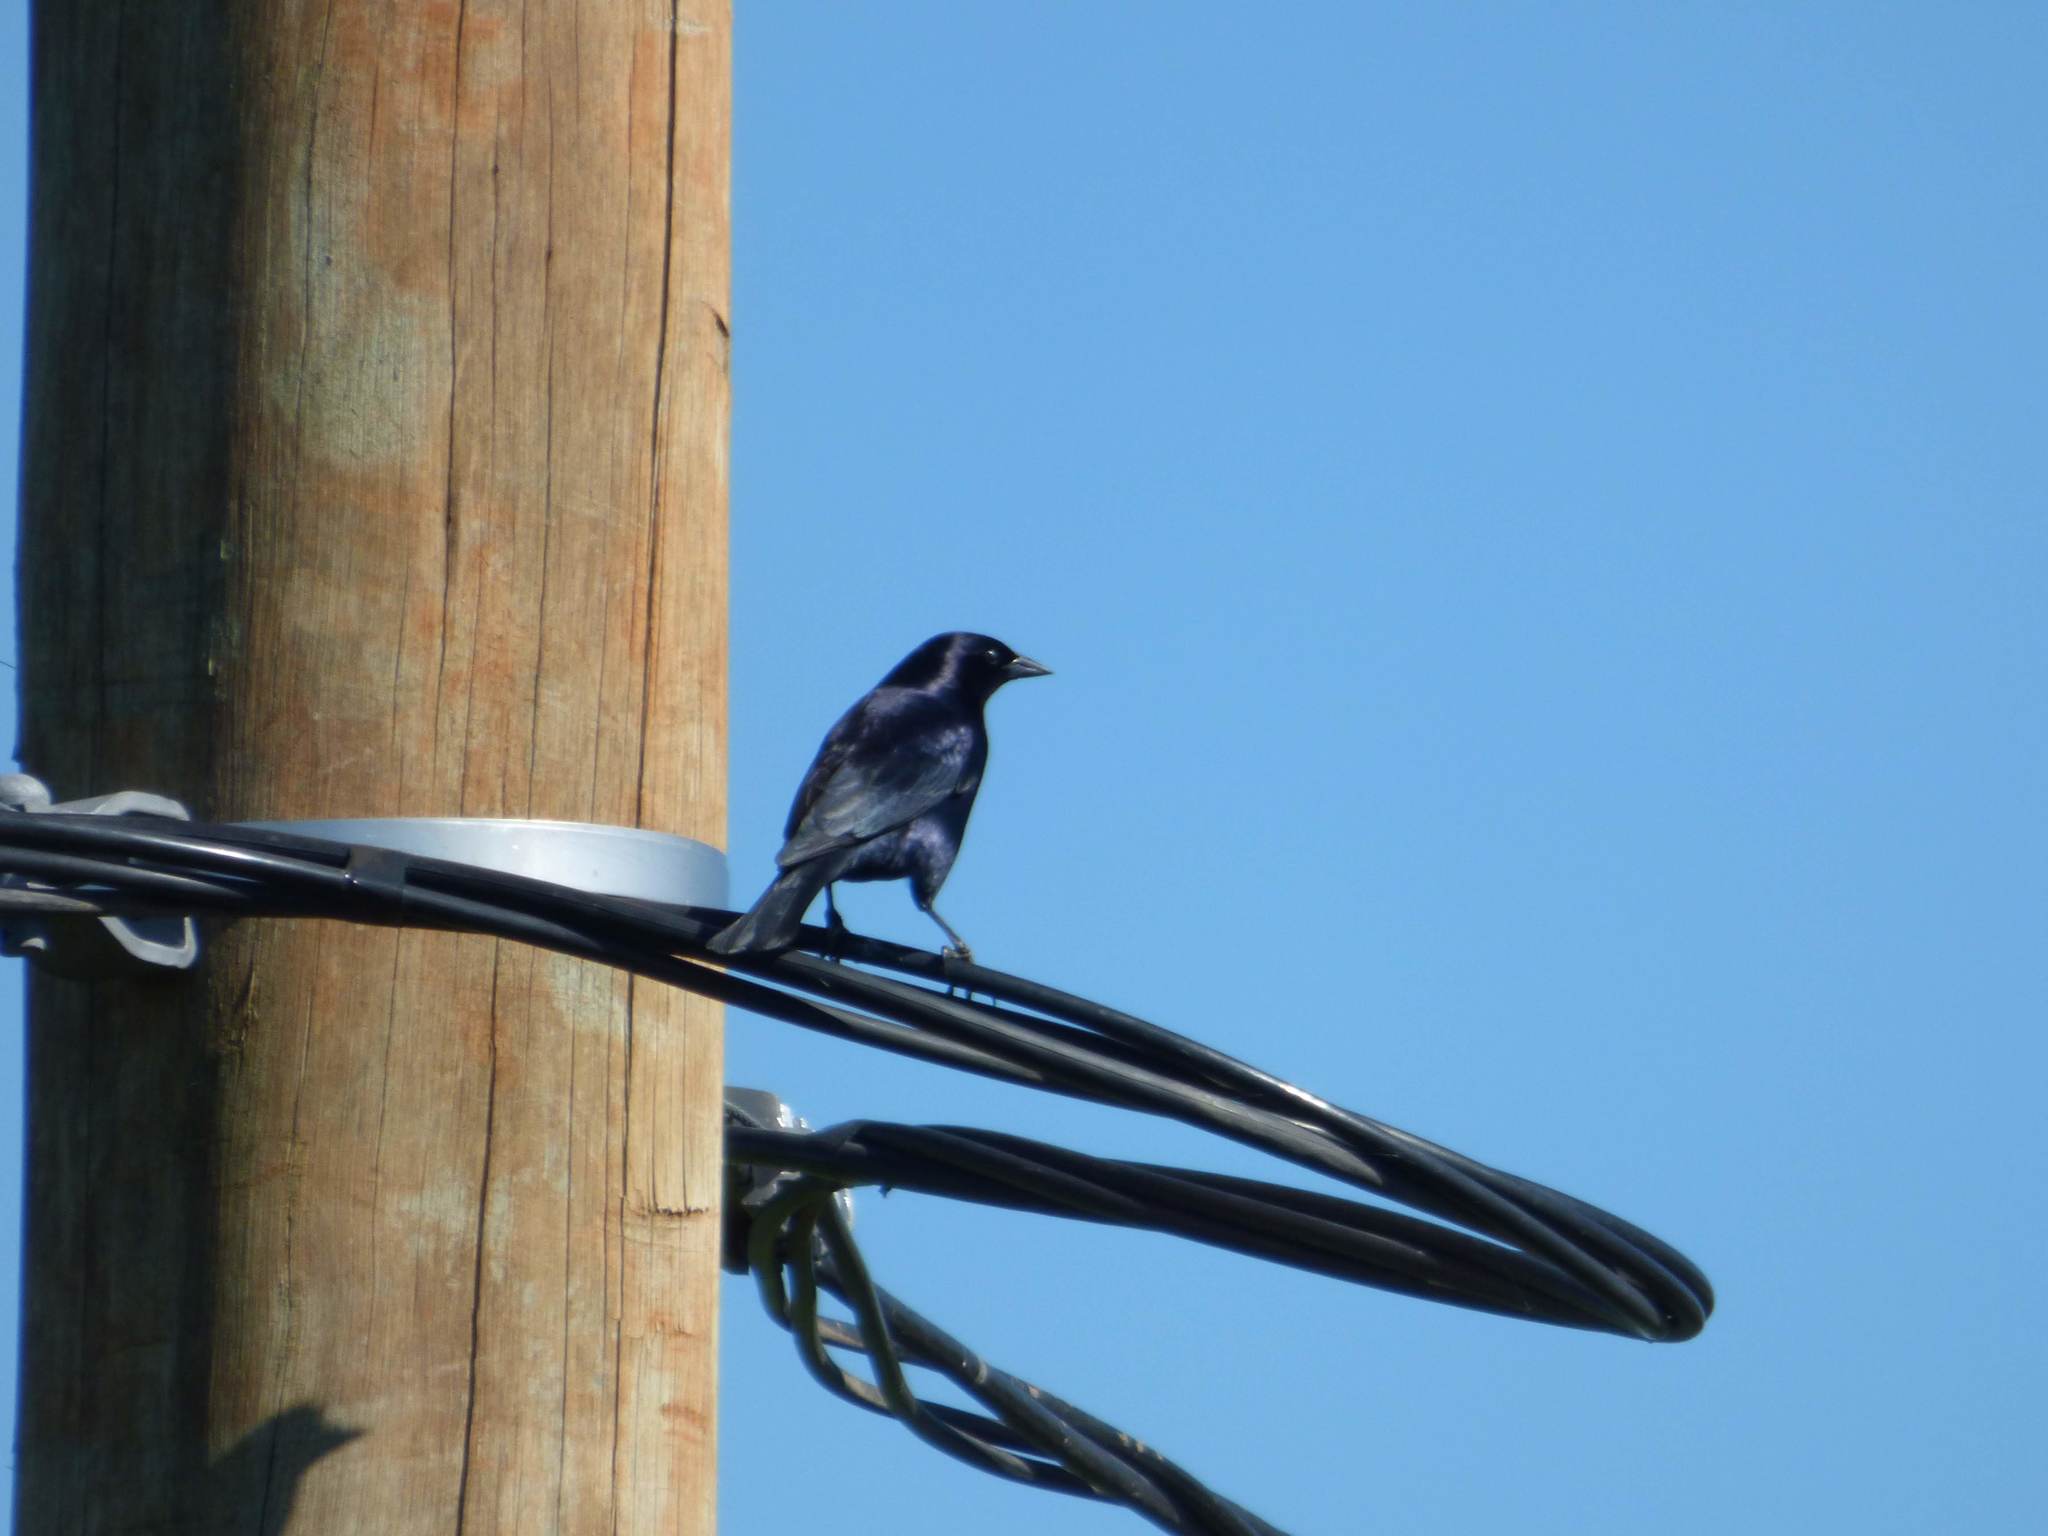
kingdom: Animalia
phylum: Chordata
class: Aves
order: Passeriformes
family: Icteridae
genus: Molothrus
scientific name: Molothrus bonariensis
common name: Shiny cowbird
